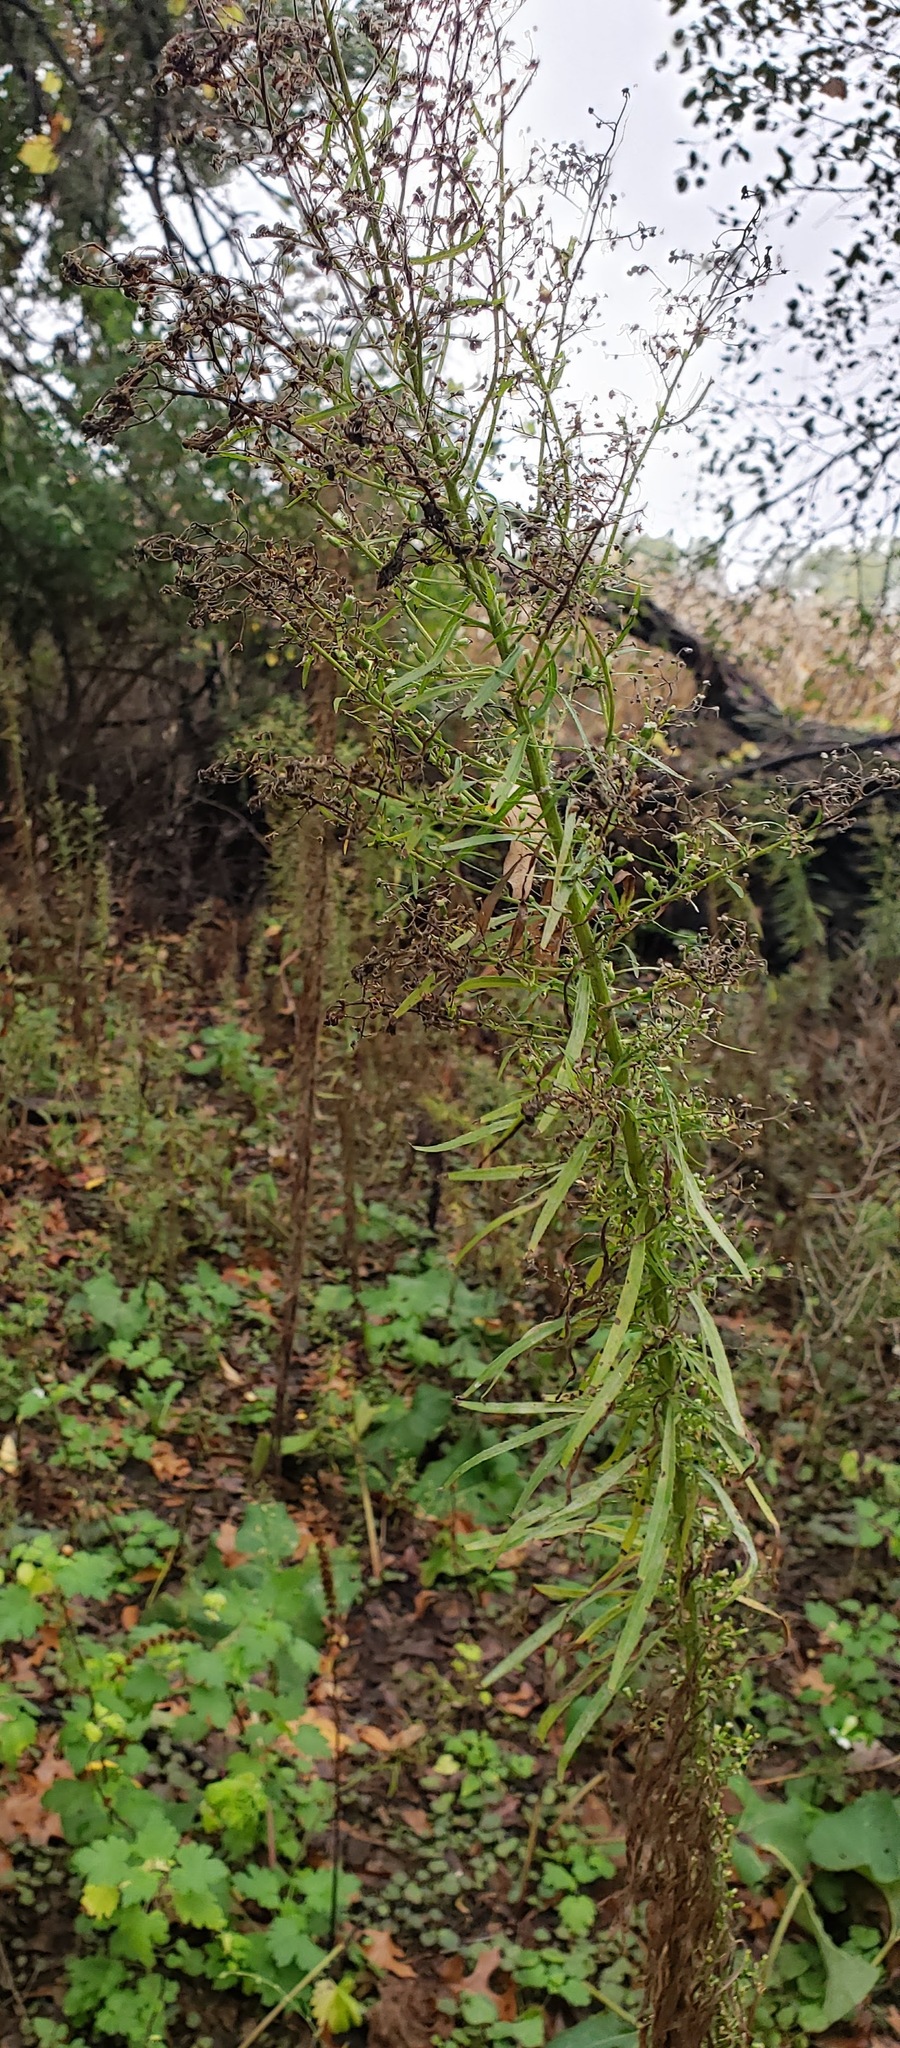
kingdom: Plantae
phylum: Tracheophyta
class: Magnoliopsida
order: Asterales
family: Asteraceae
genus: Erigeron
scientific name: Erigeron canadensis
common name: Canadian fleabane
